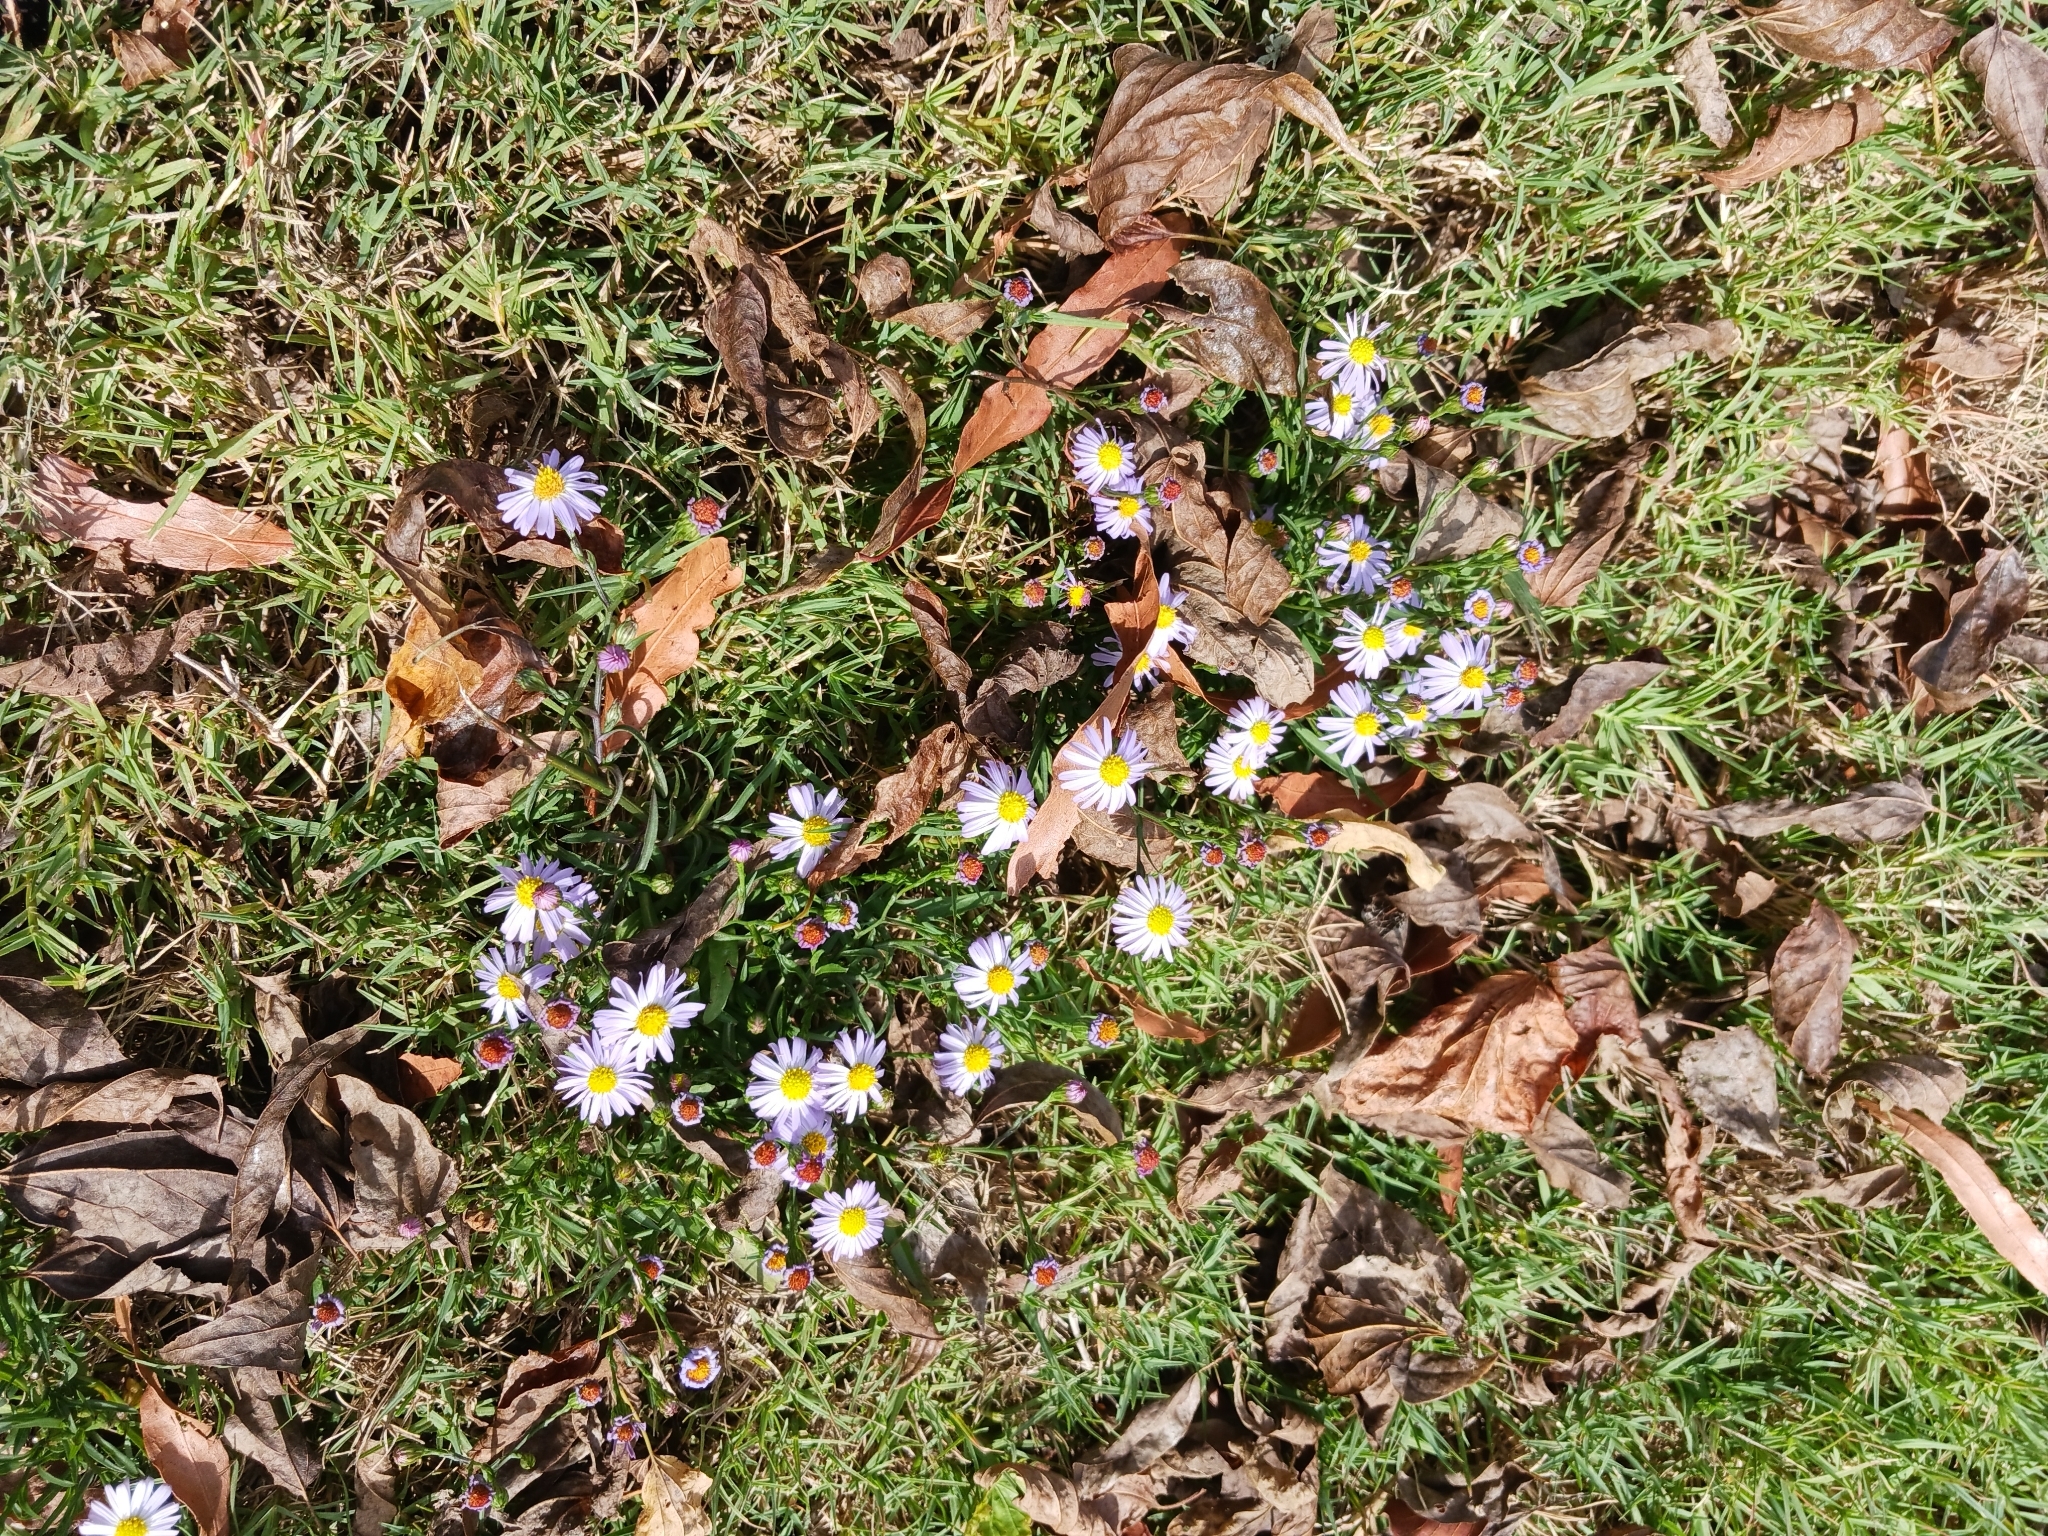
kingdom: Plantae
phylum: Tracheophyta
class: Magnoliopsida
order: Asterales
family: Asteraceae
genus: Symphyotrichum
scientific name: Symphyotrichum divaricatum
